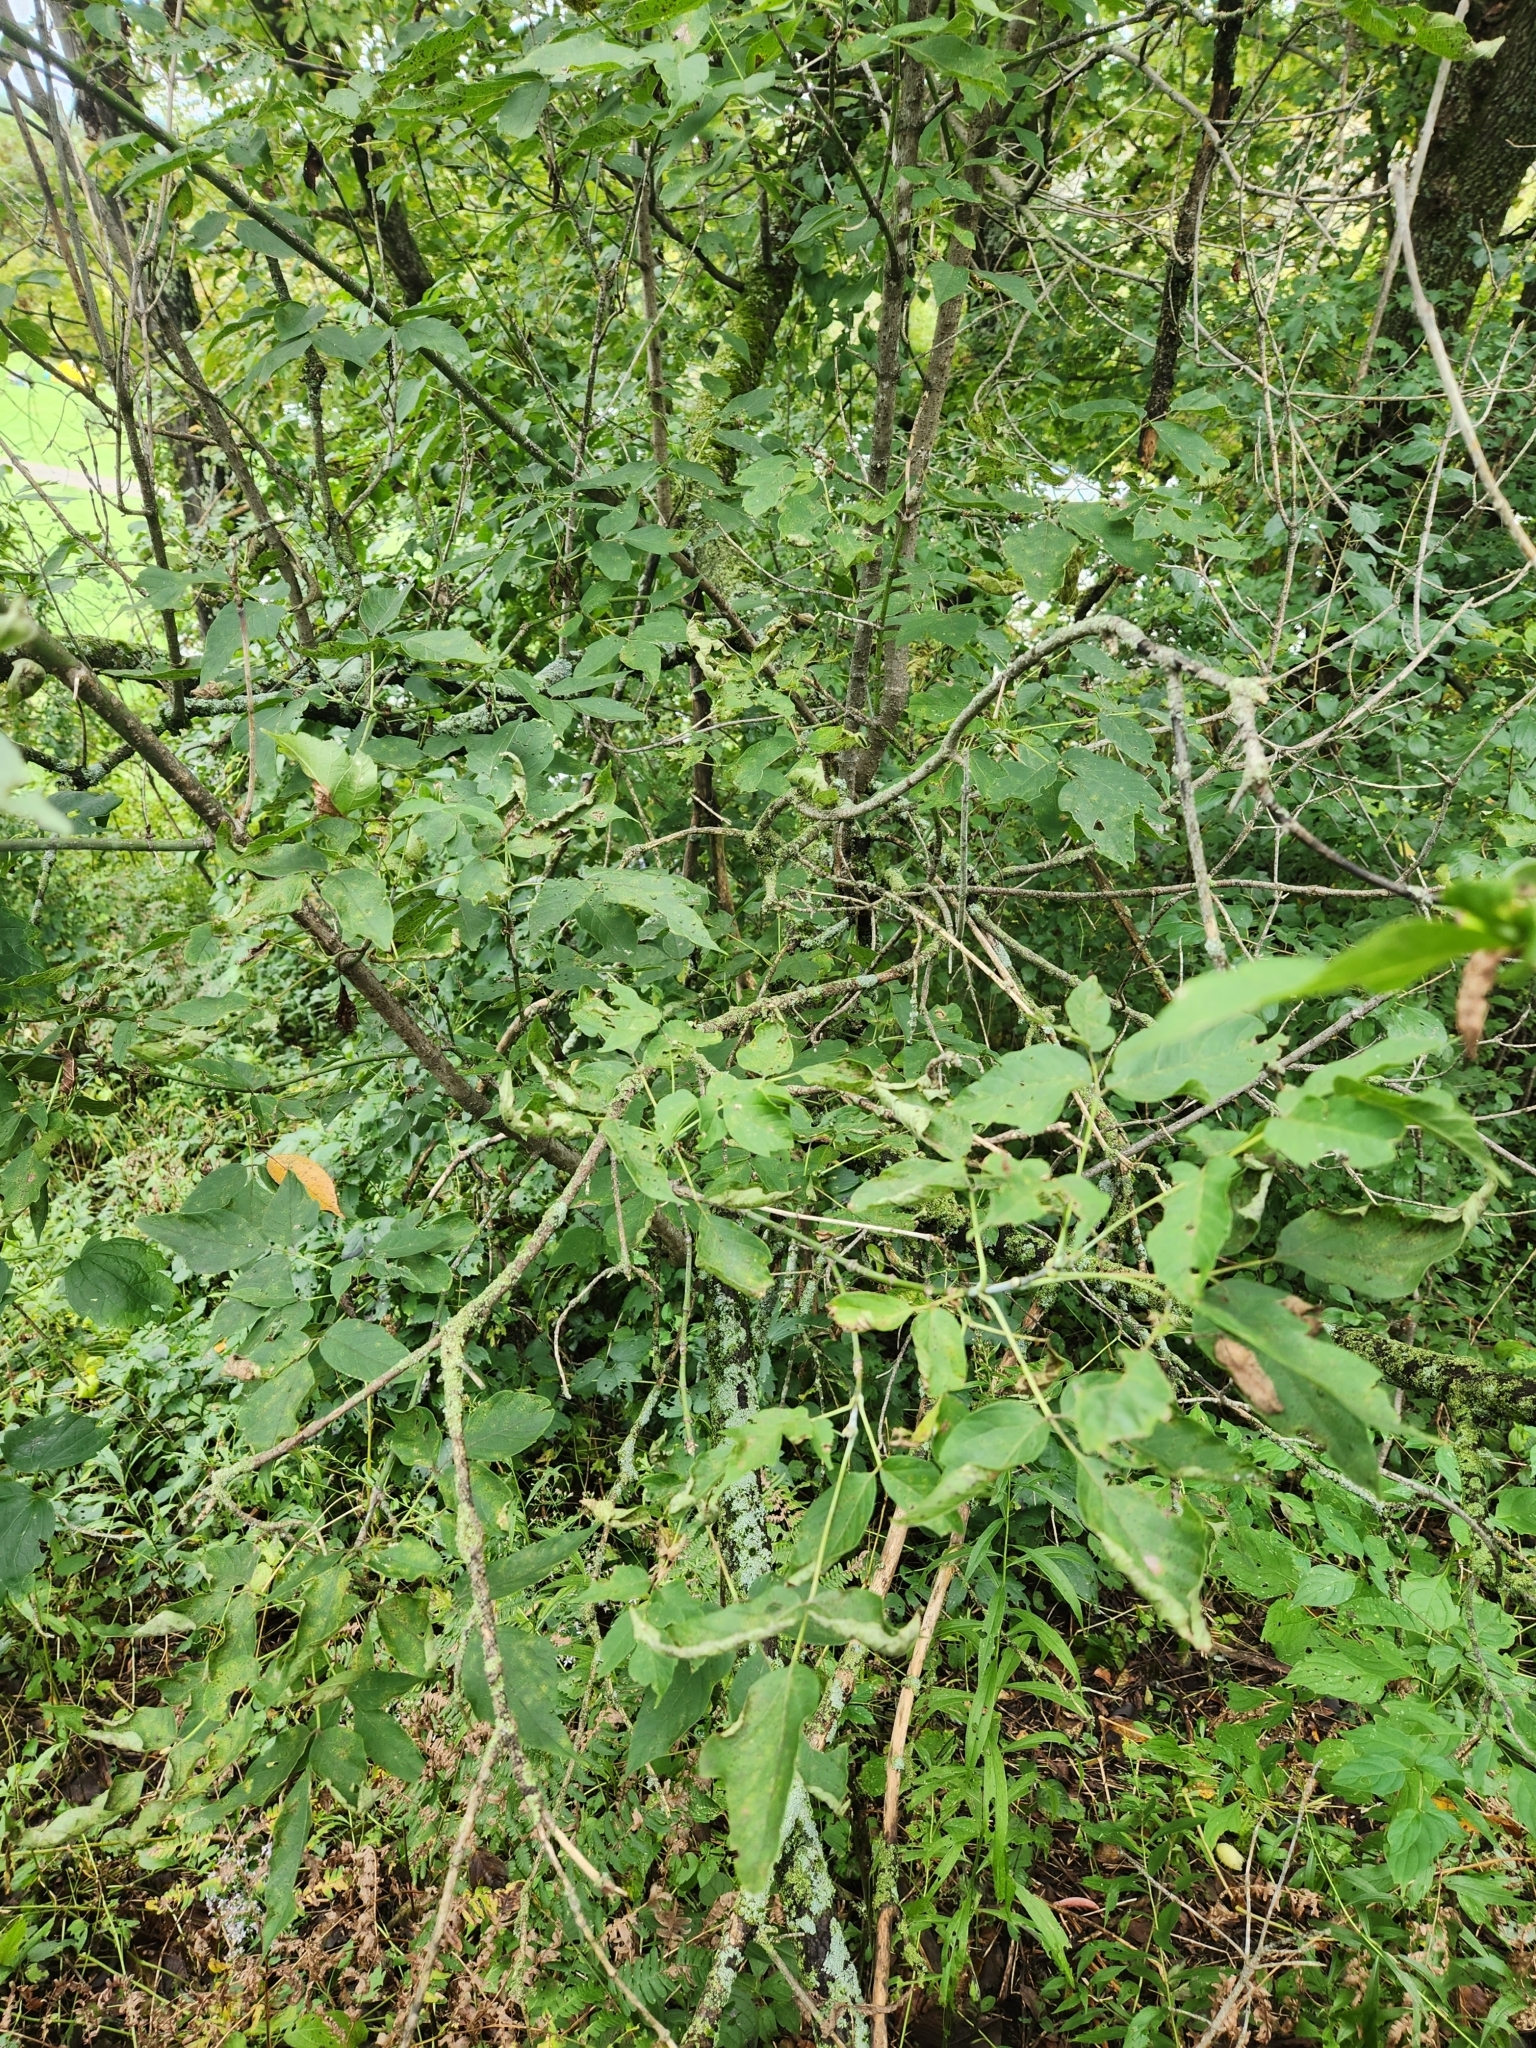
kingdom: Plantae
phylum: Tracheophyta
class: Magnoliopsida
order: Sapindales
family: Sapindaceae
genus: Acer
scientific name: Acer negundo
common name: Ashleaf maple
